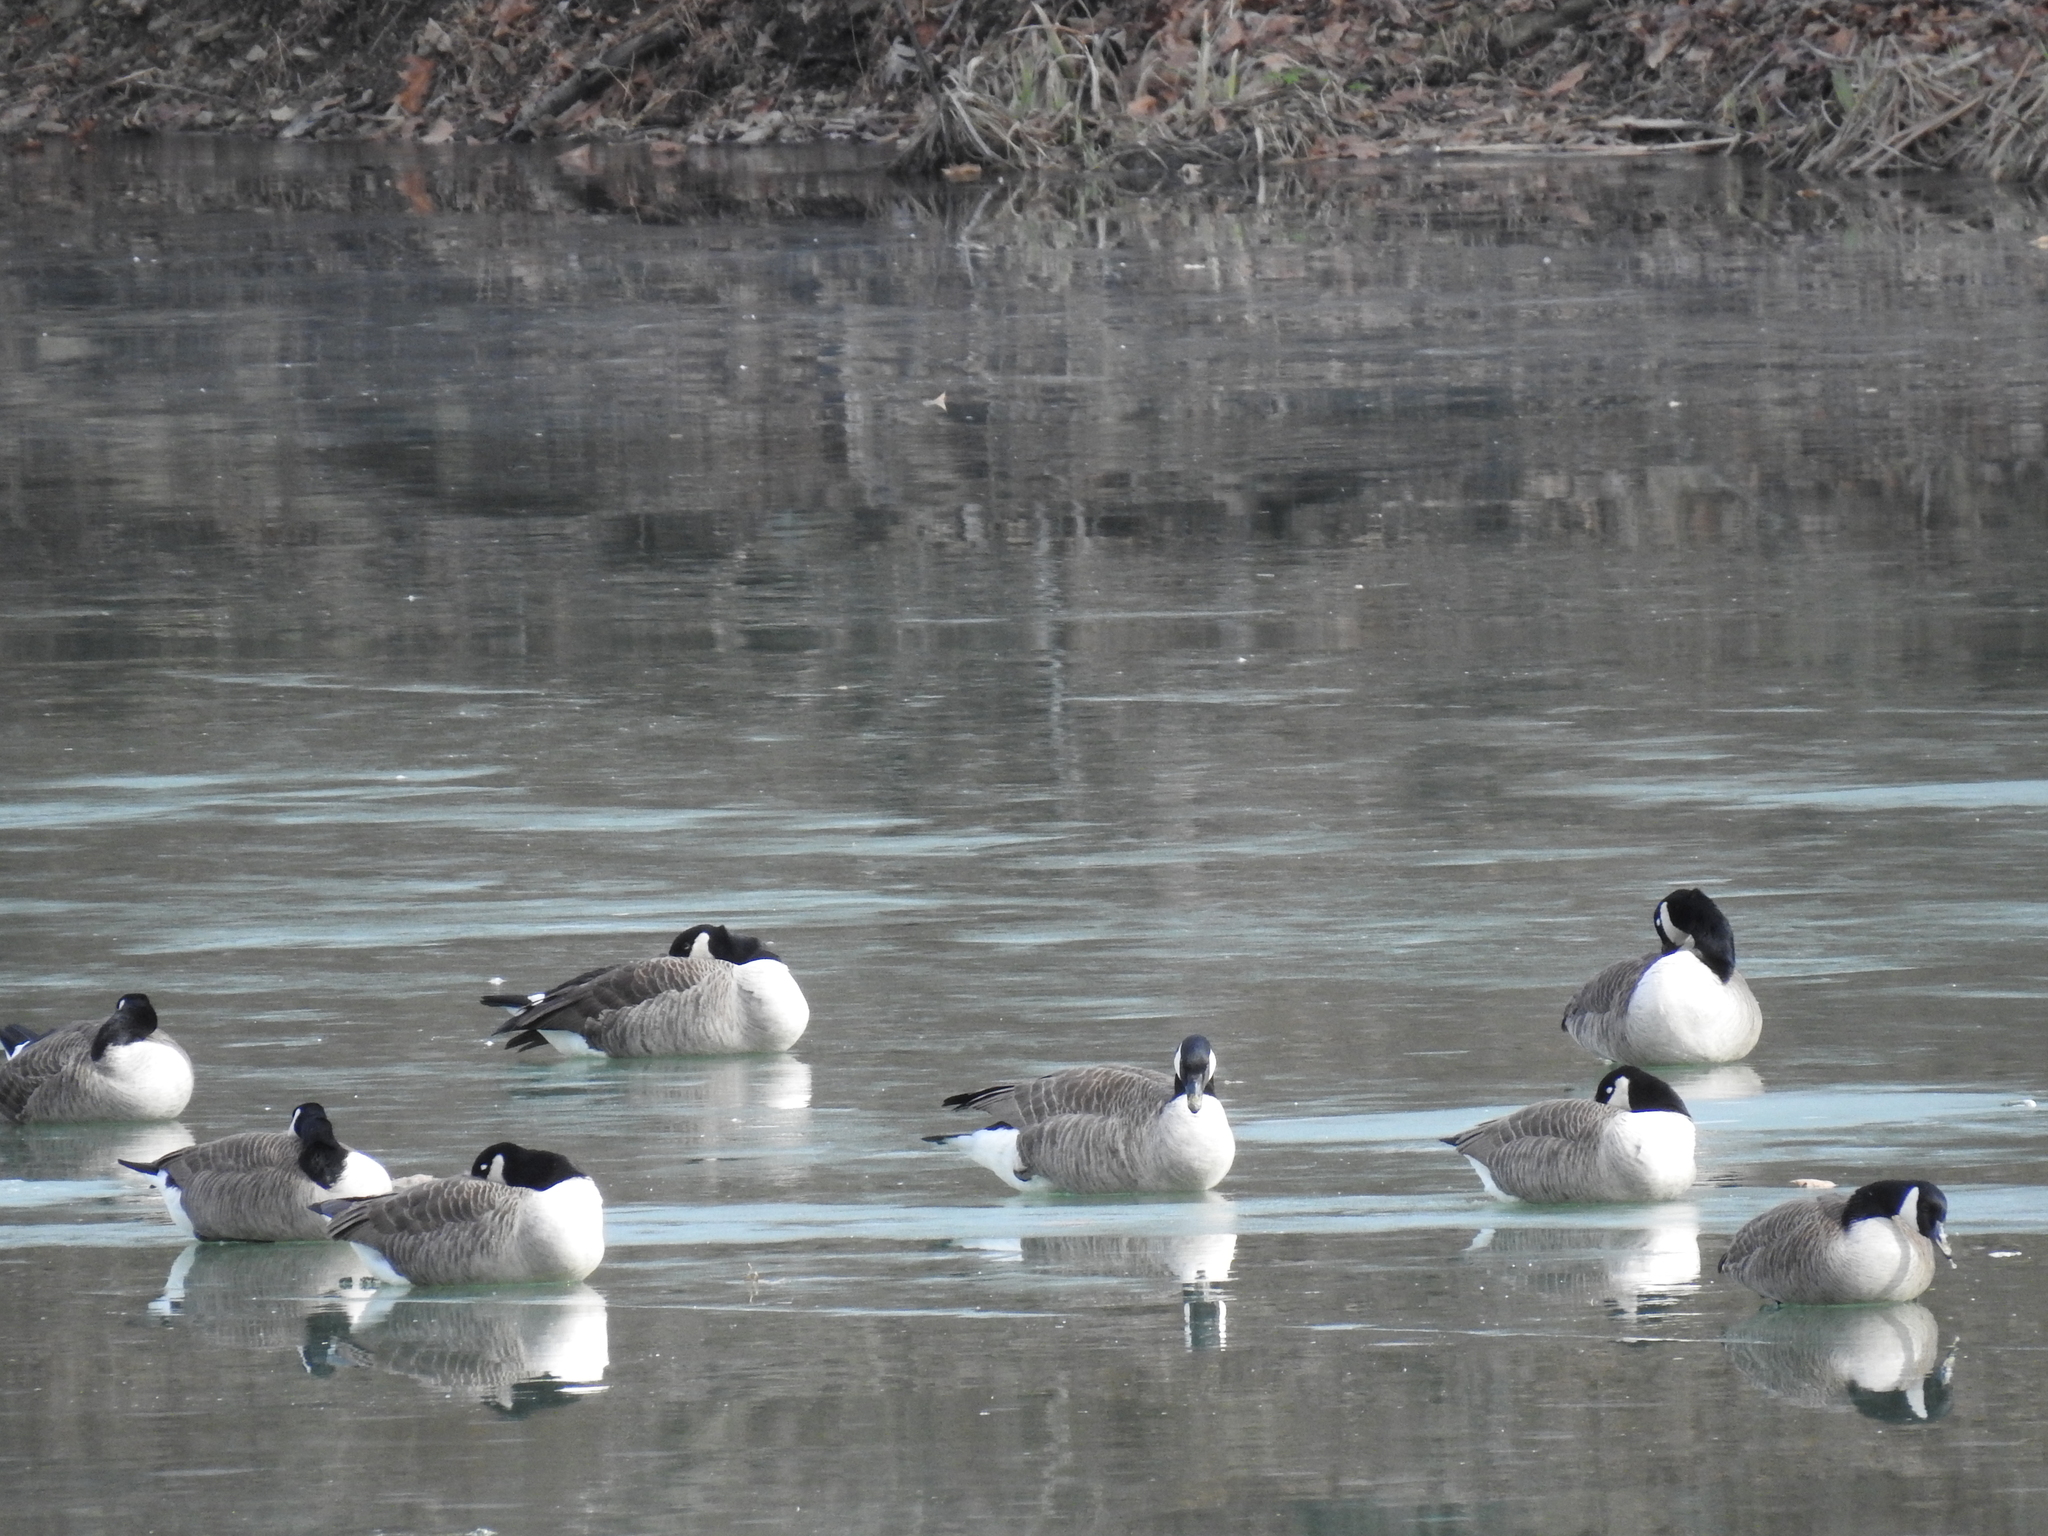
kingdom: Animalia
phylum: Chordata
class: Aves
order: Anseriformes
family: Anatidae
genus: Branta
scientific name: Branta canadensis
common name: Canada goose
